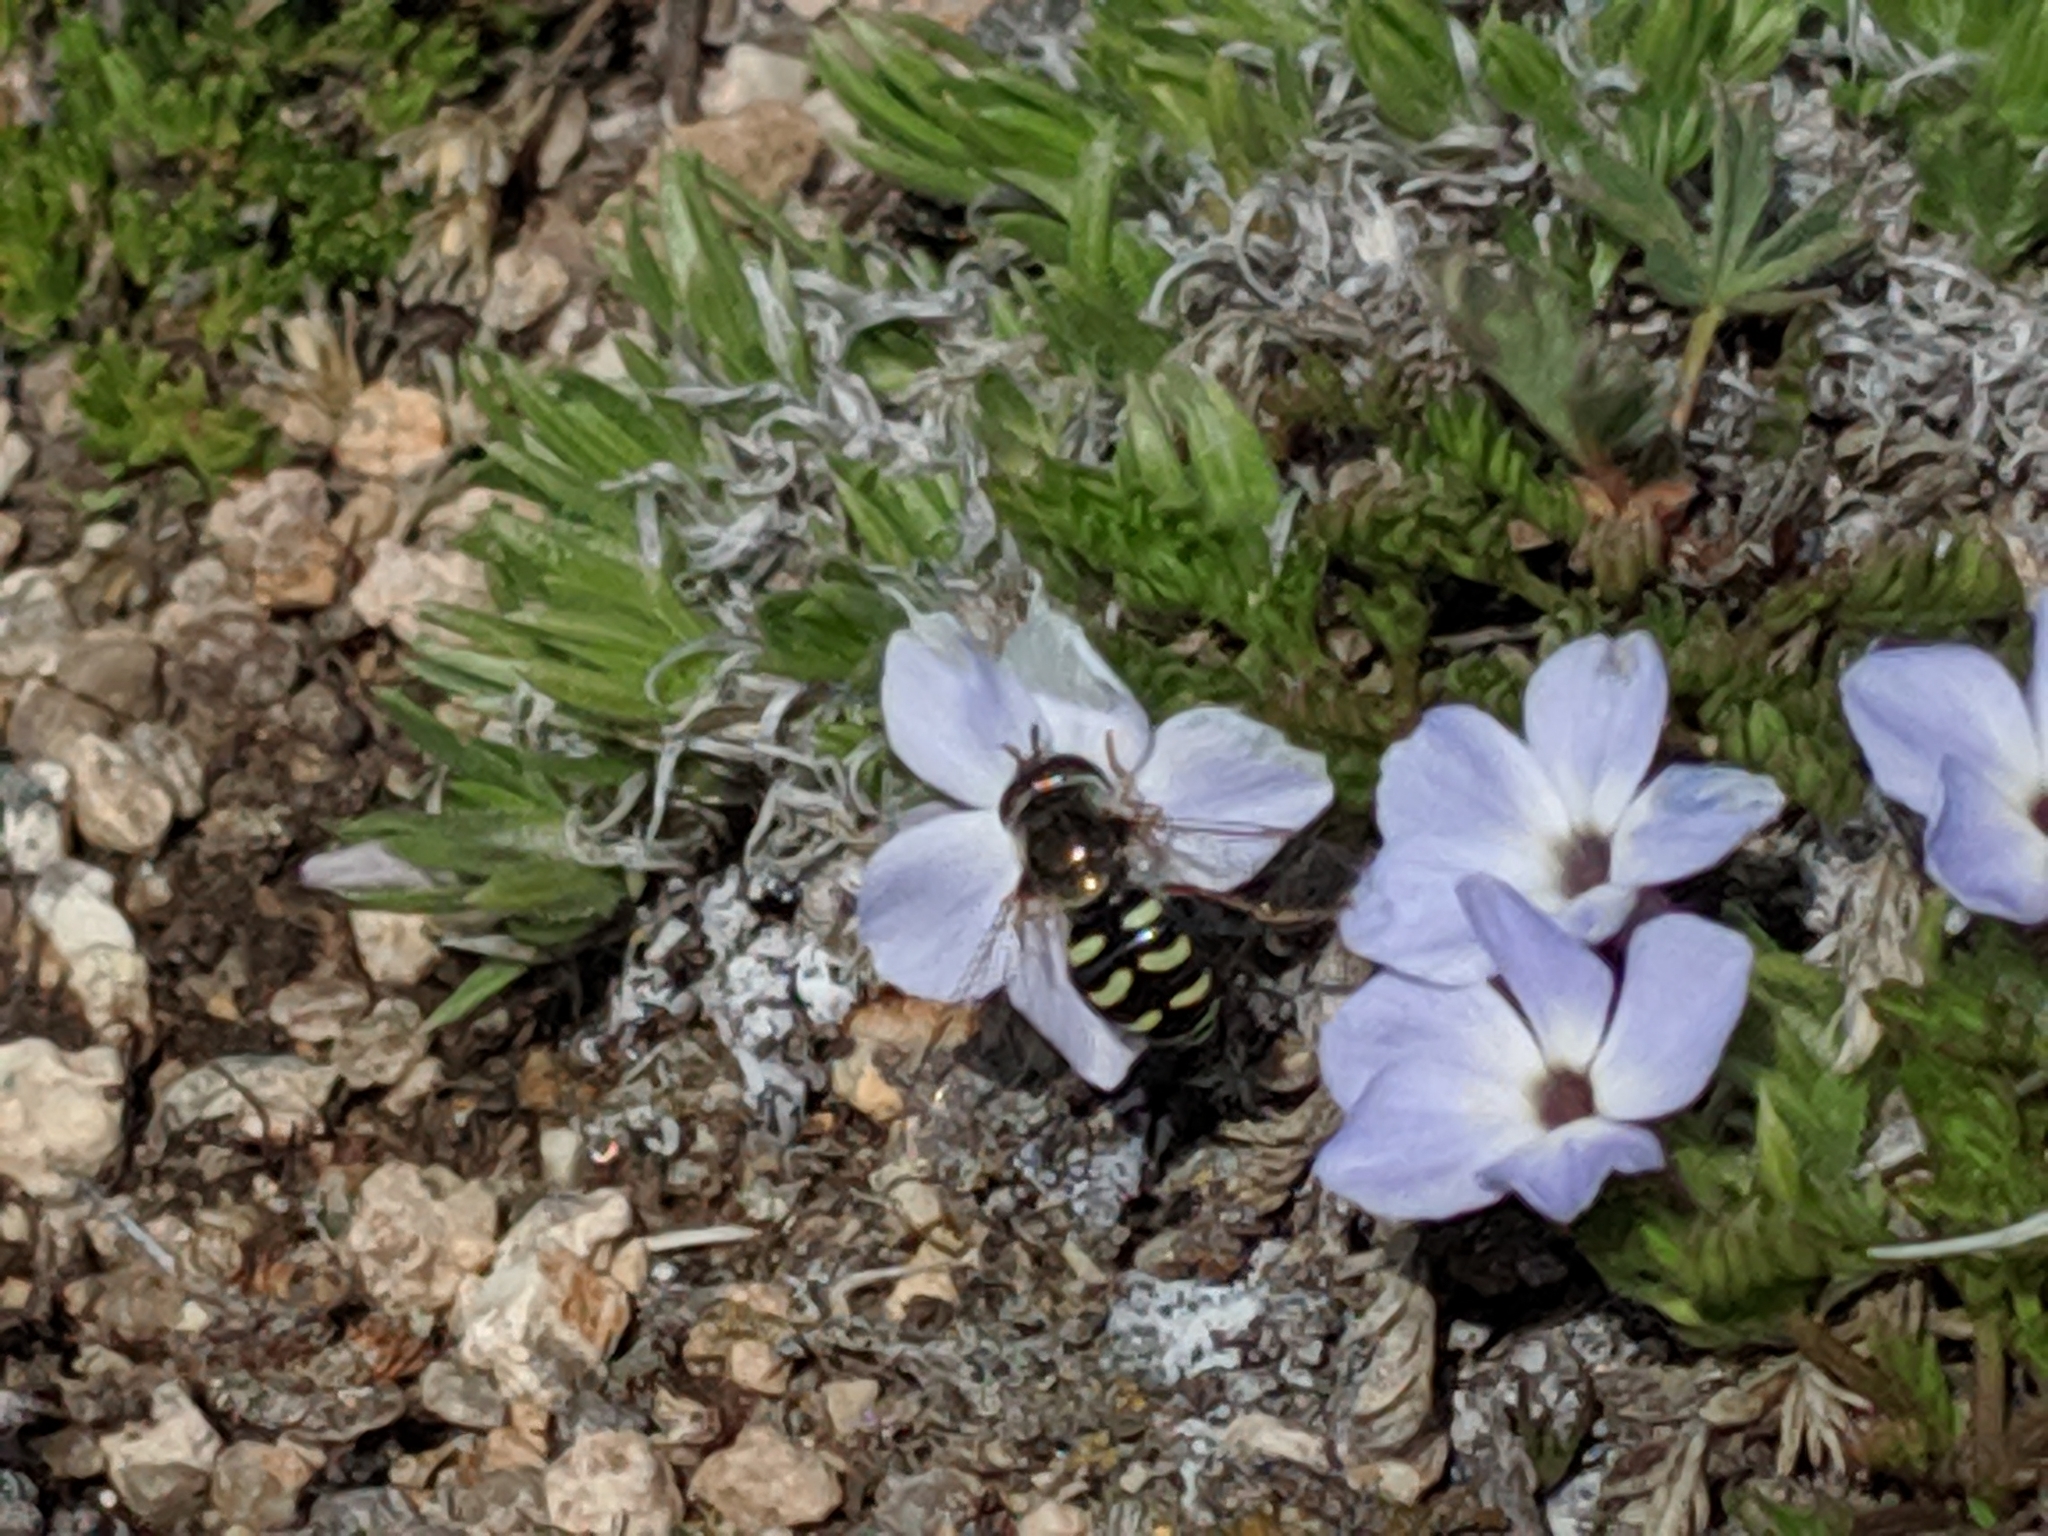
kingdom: Animalia
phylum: Arthropoda
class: Insecta
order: Diptera
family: Syrphidae
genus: Eupeodes
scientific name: Eupeodes volucris
